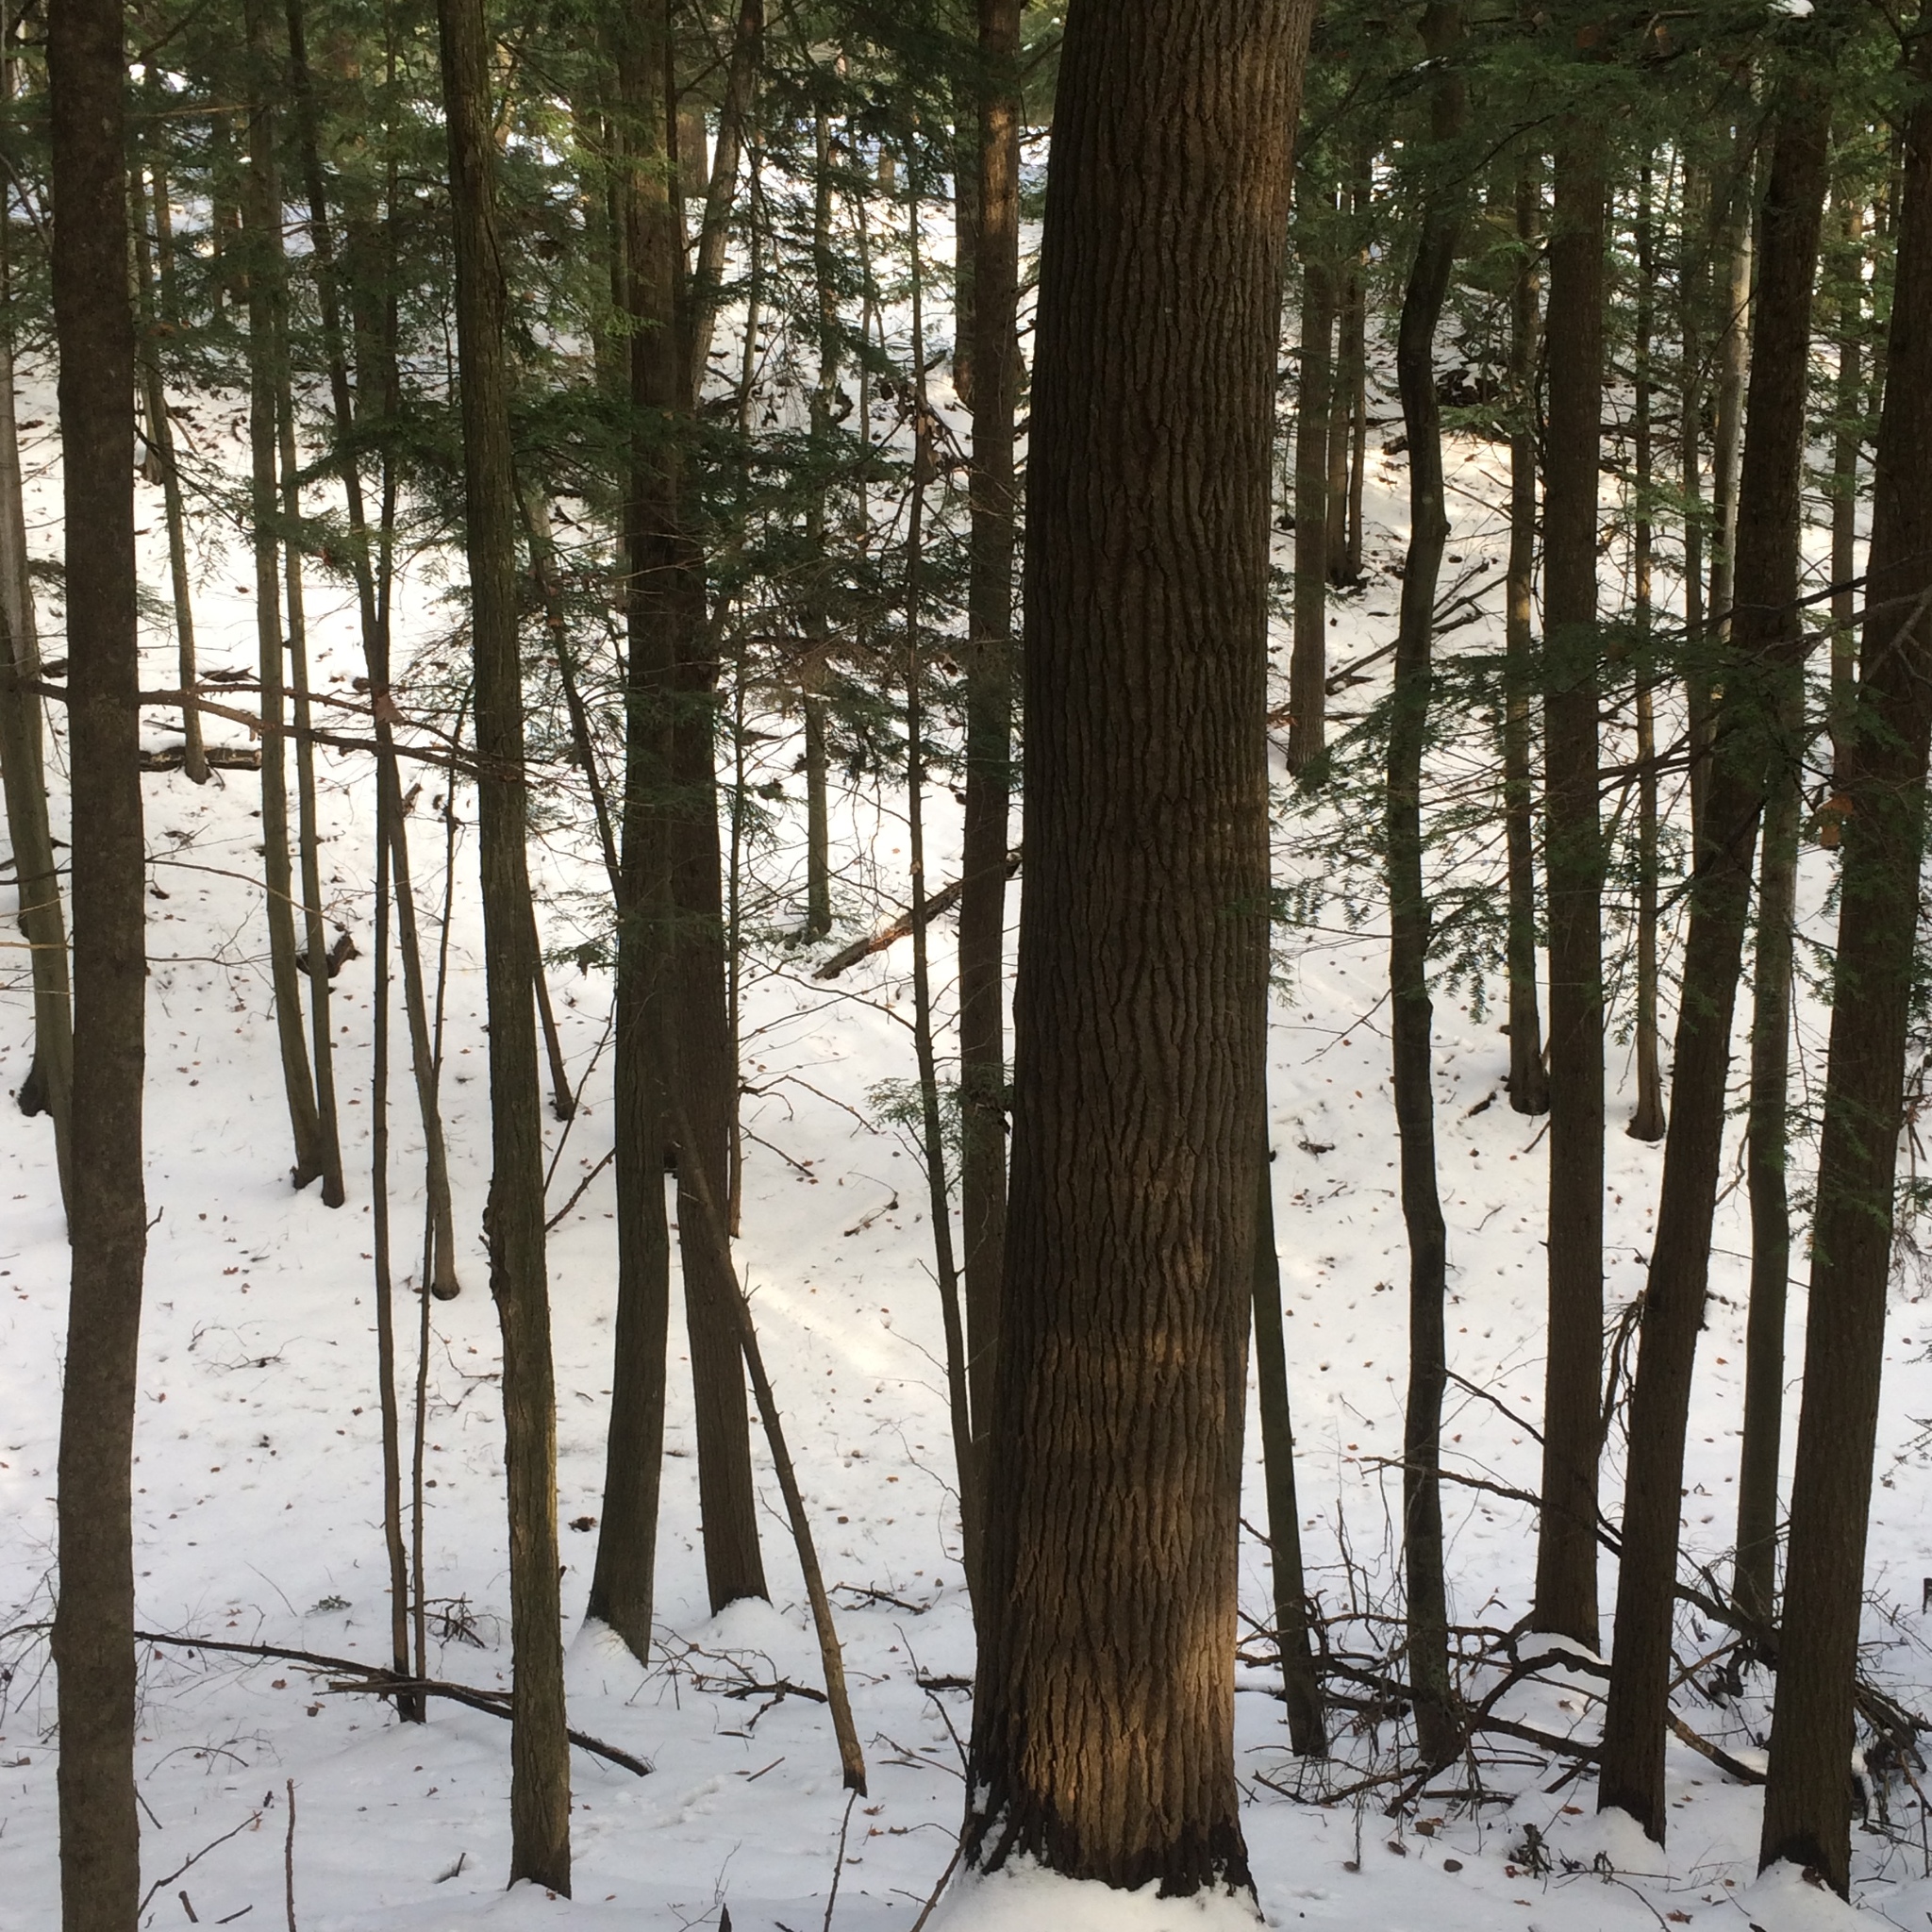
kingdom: Plantae
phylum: Tracheophyta
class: Magnoliopsida
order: Malpighiales
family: Salicaceae
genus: Populus
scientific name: Populus grandidentata
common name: Bigtooth aspen
